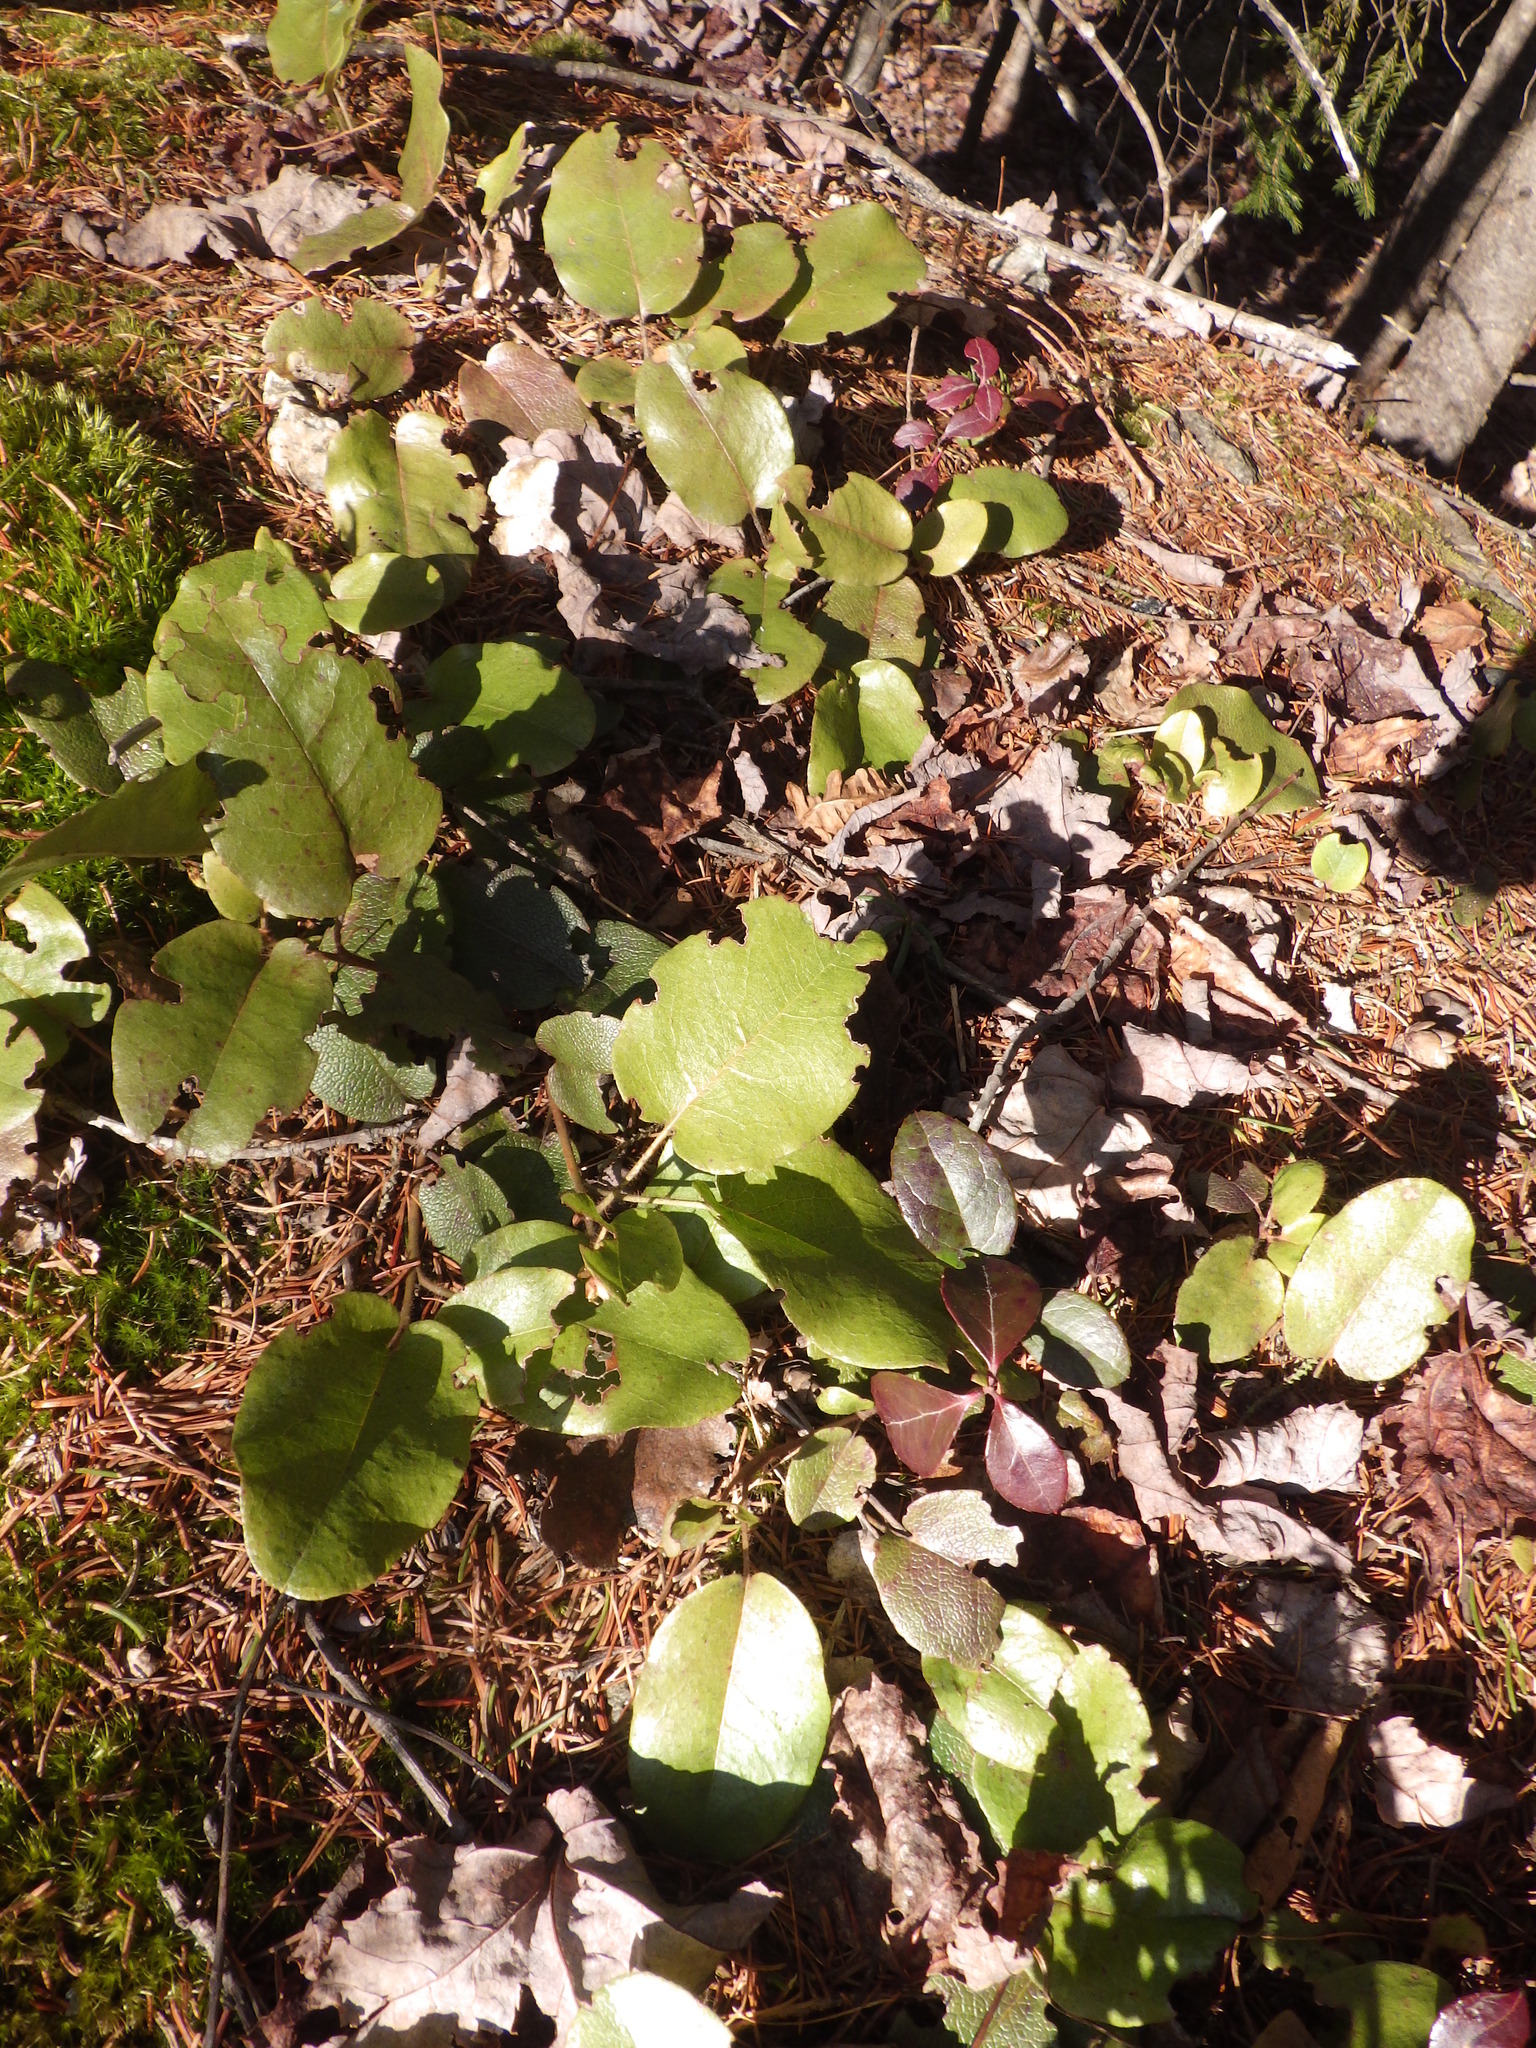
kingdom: Plantae
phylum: Tracheophyta
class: Magnoliopsida
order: Ericales
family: Ericaceae
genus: Epigaea
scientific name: Epigaea repens
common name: Gravelroot
